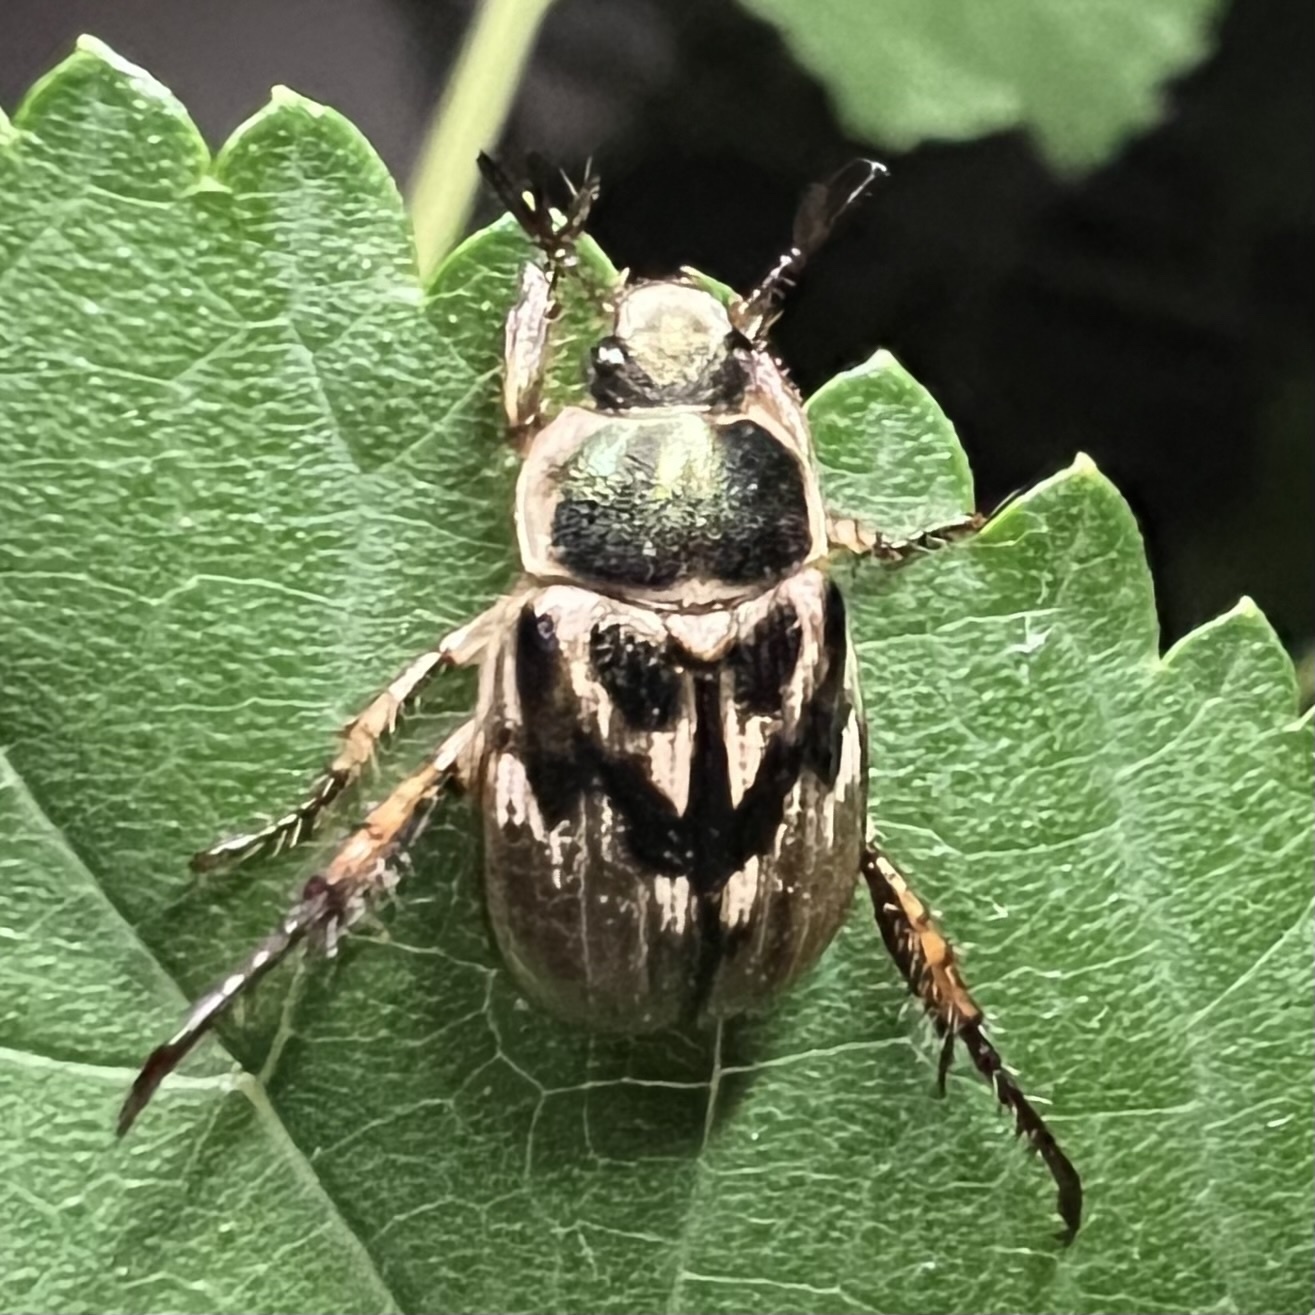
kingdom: Animalia
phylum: Arthropoda
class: Insecta
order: Coleoptera
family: Scarabaeidae
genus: Exomala
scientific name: Exomala orientalis
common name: Oriental beetle
